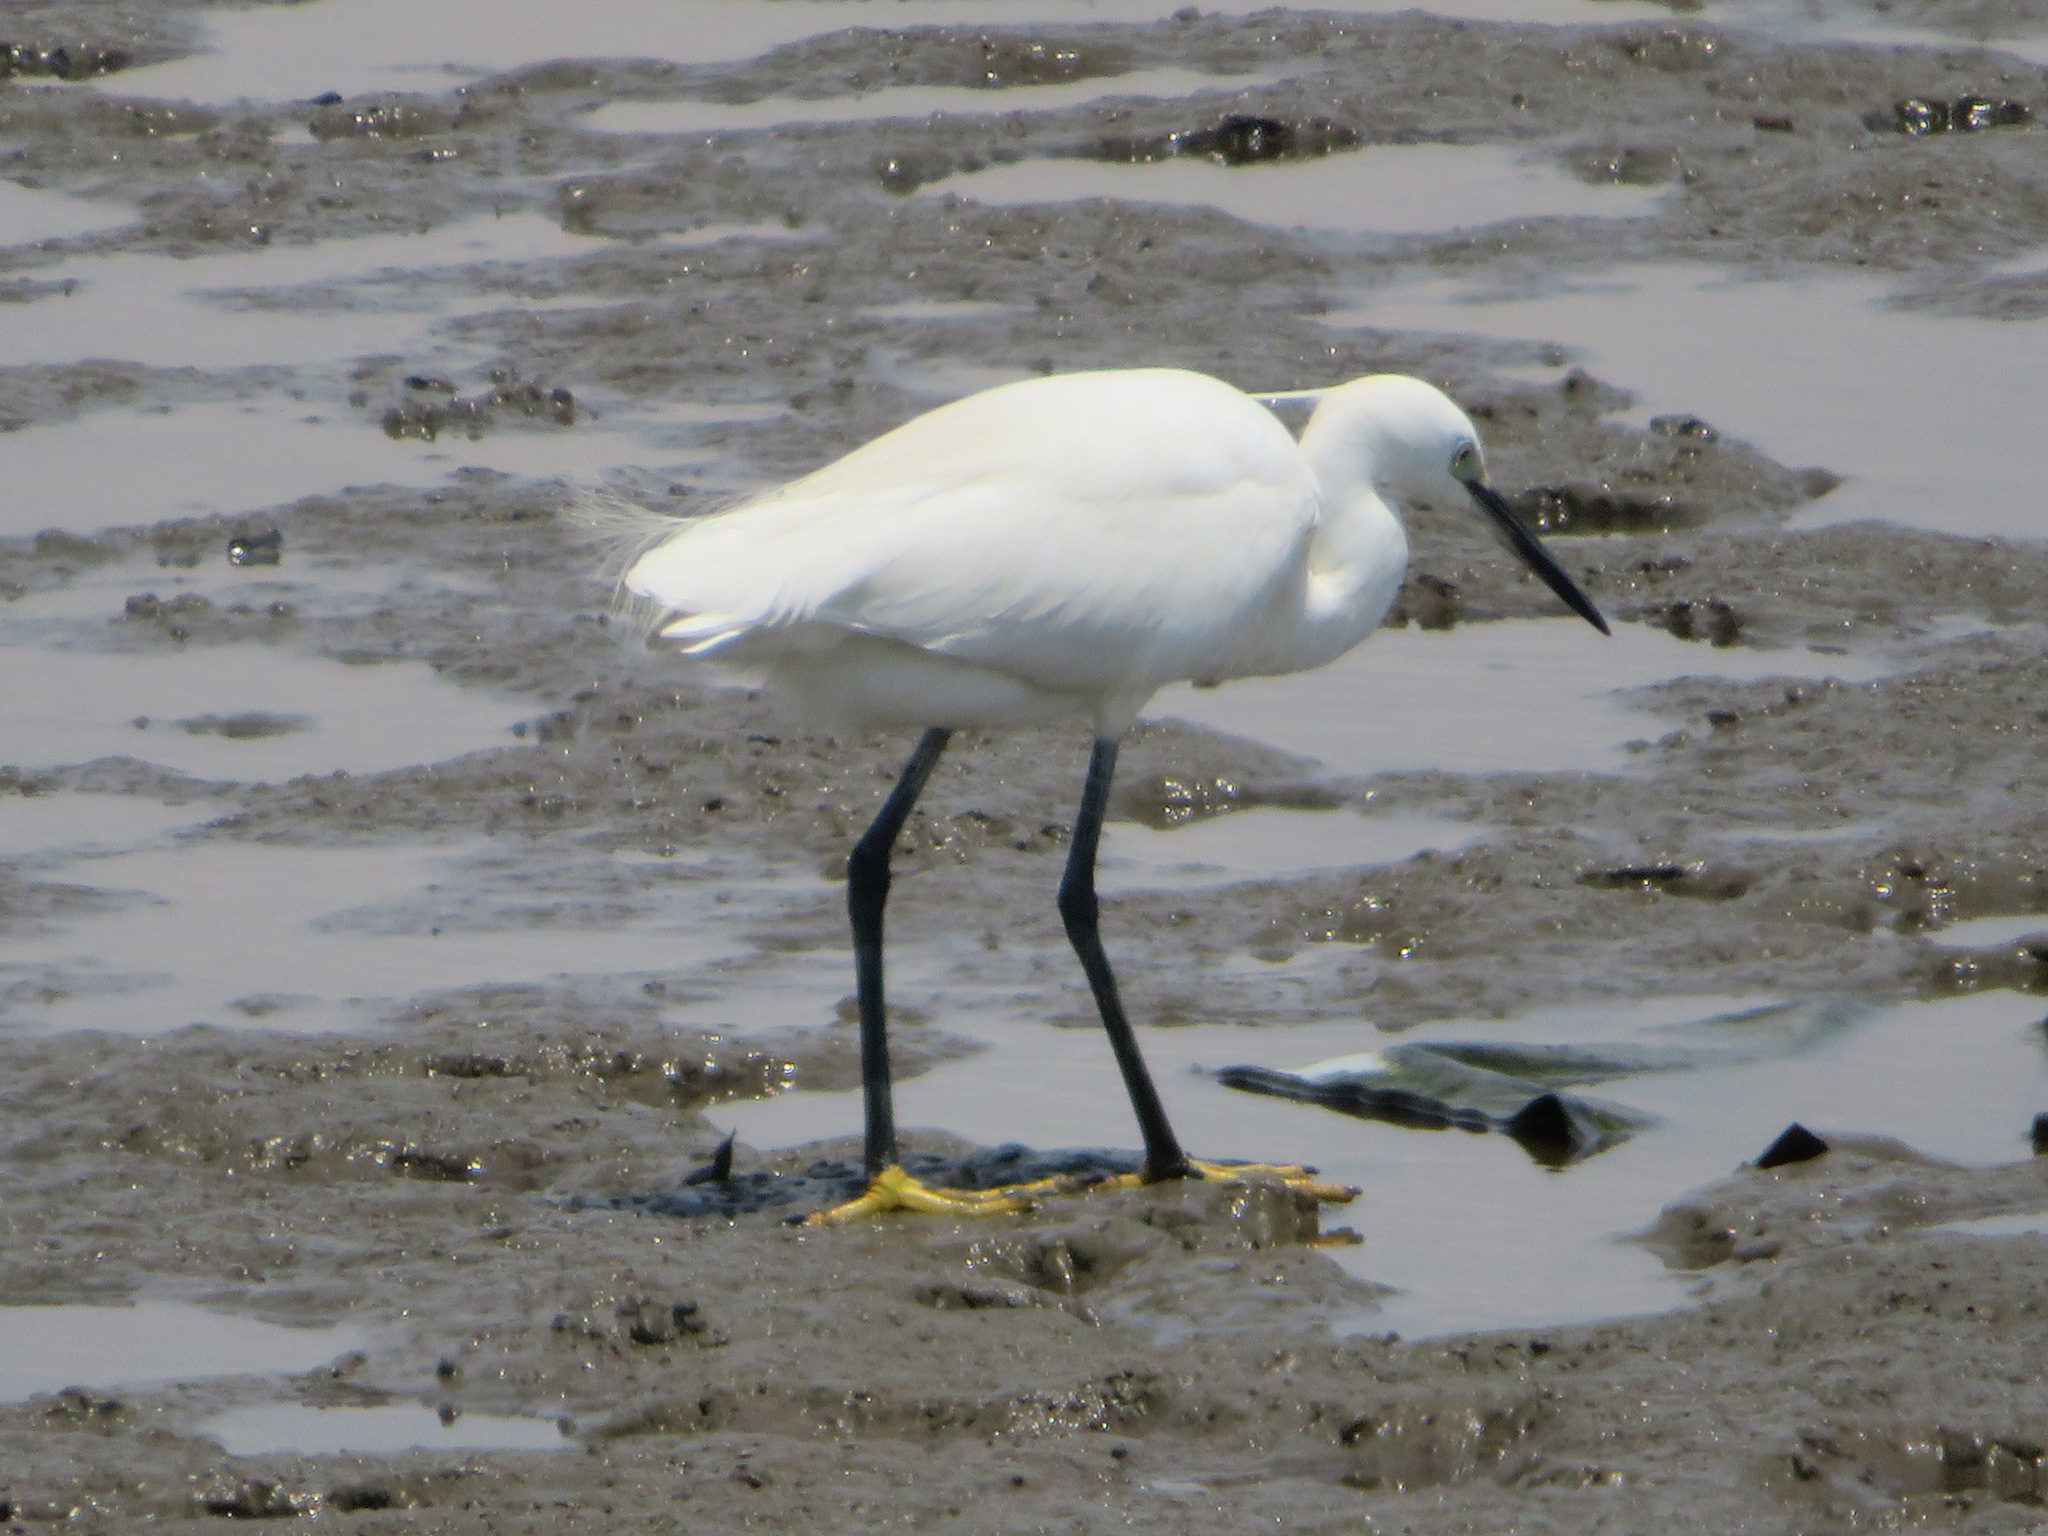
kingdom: Animalia
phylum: Chordata
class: Aves
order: Pelecaniformes
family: Ardeidae
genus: Egretta
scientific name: Egretta garzetta
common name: Little egret
